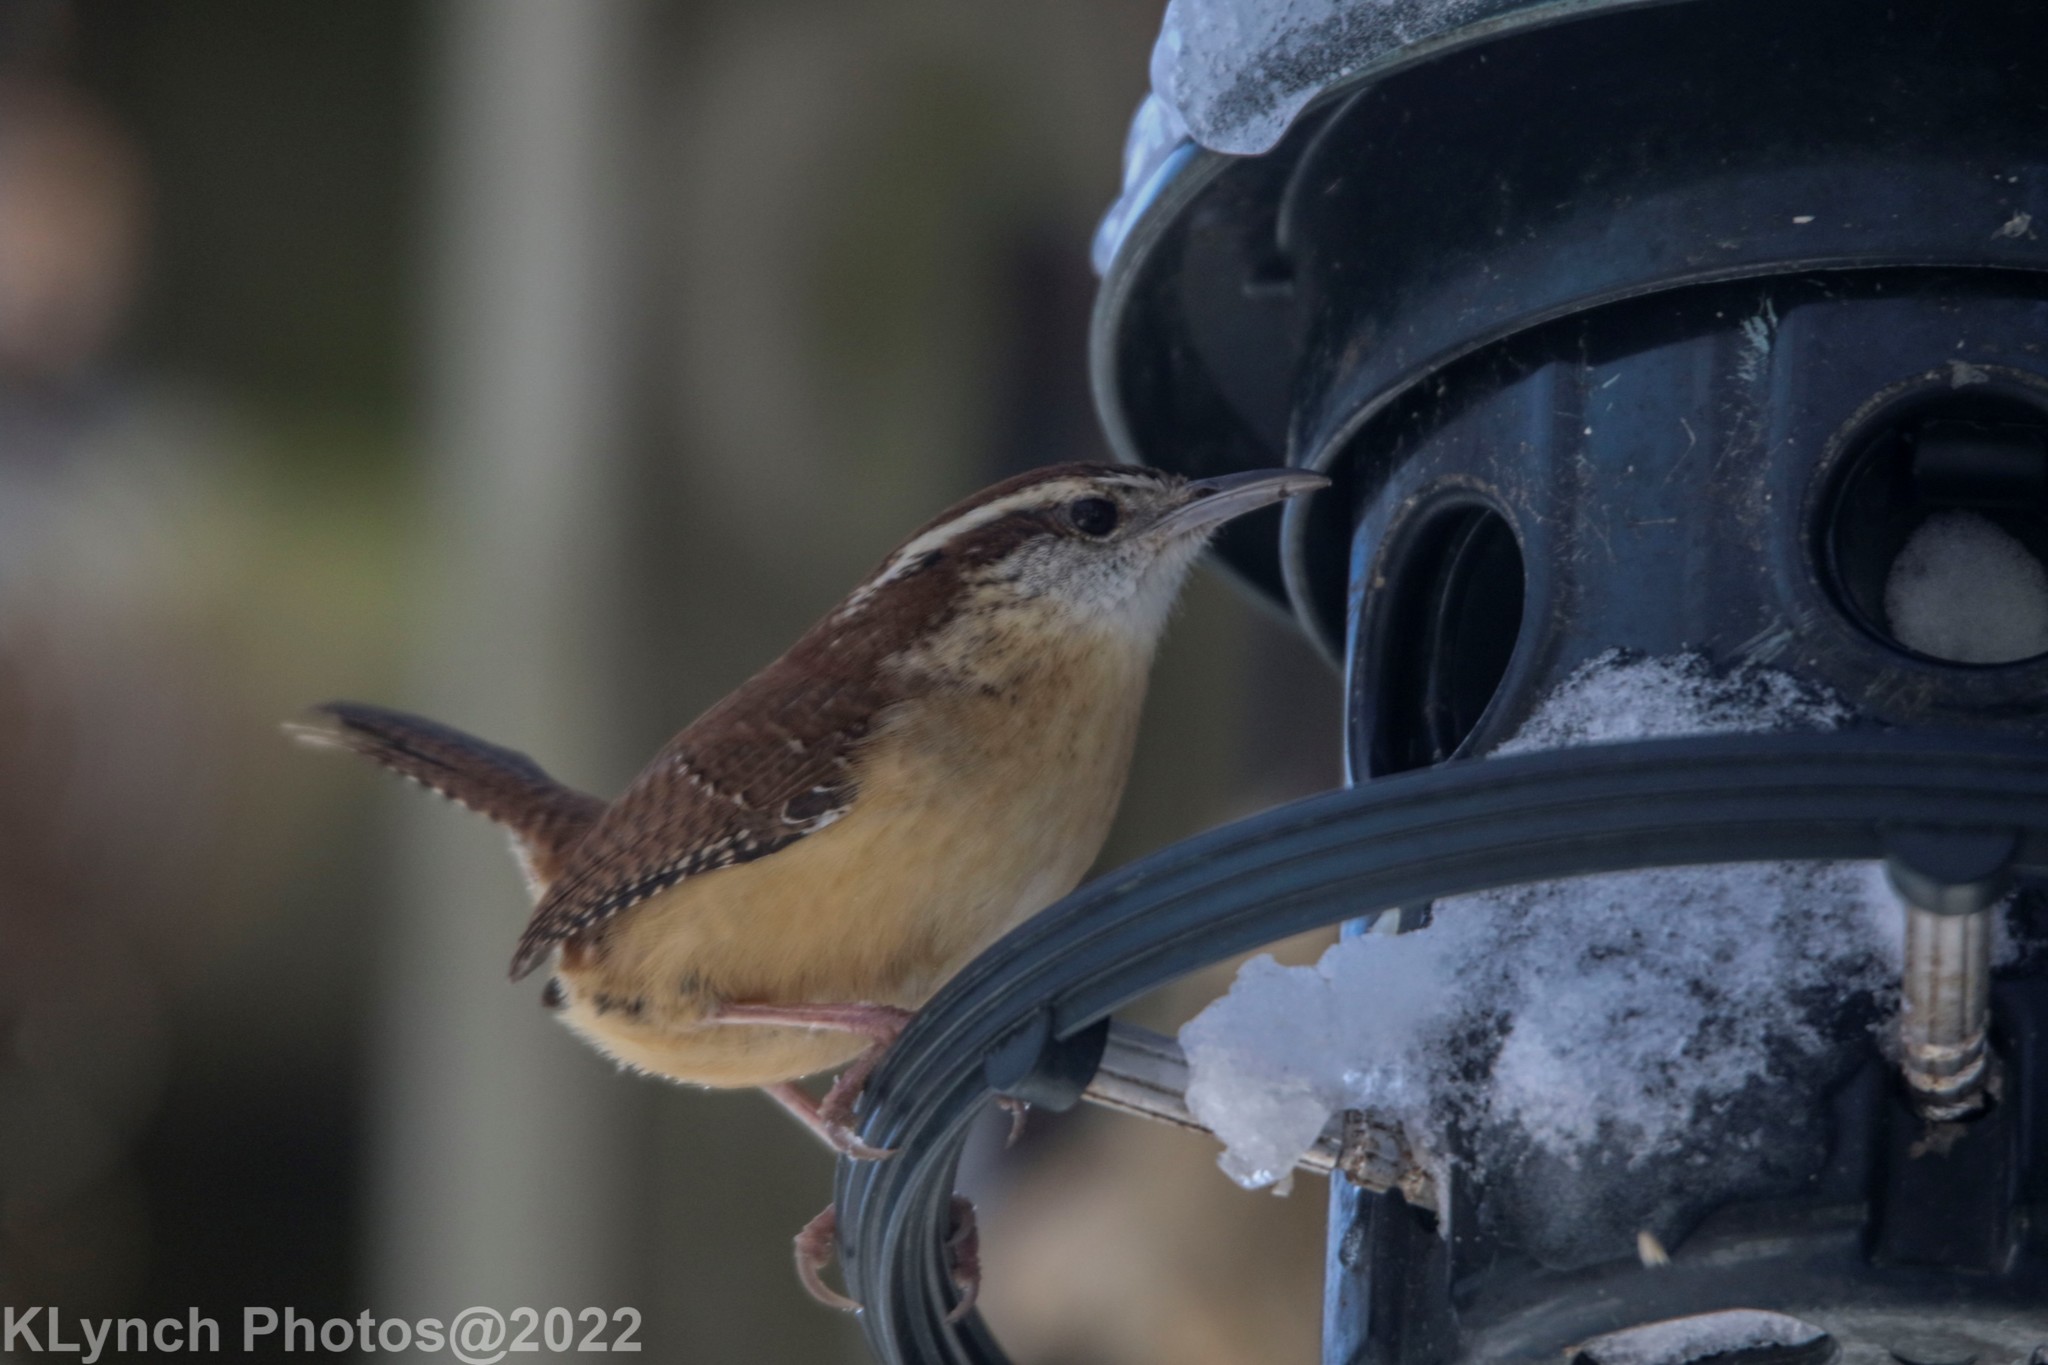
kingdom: Animalia
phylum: Chordata
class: Aves
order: Passeriformes
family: Troglodytidae
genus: Thryothorus
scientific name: Thryothorus ludovicianus
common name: Carolina wren
